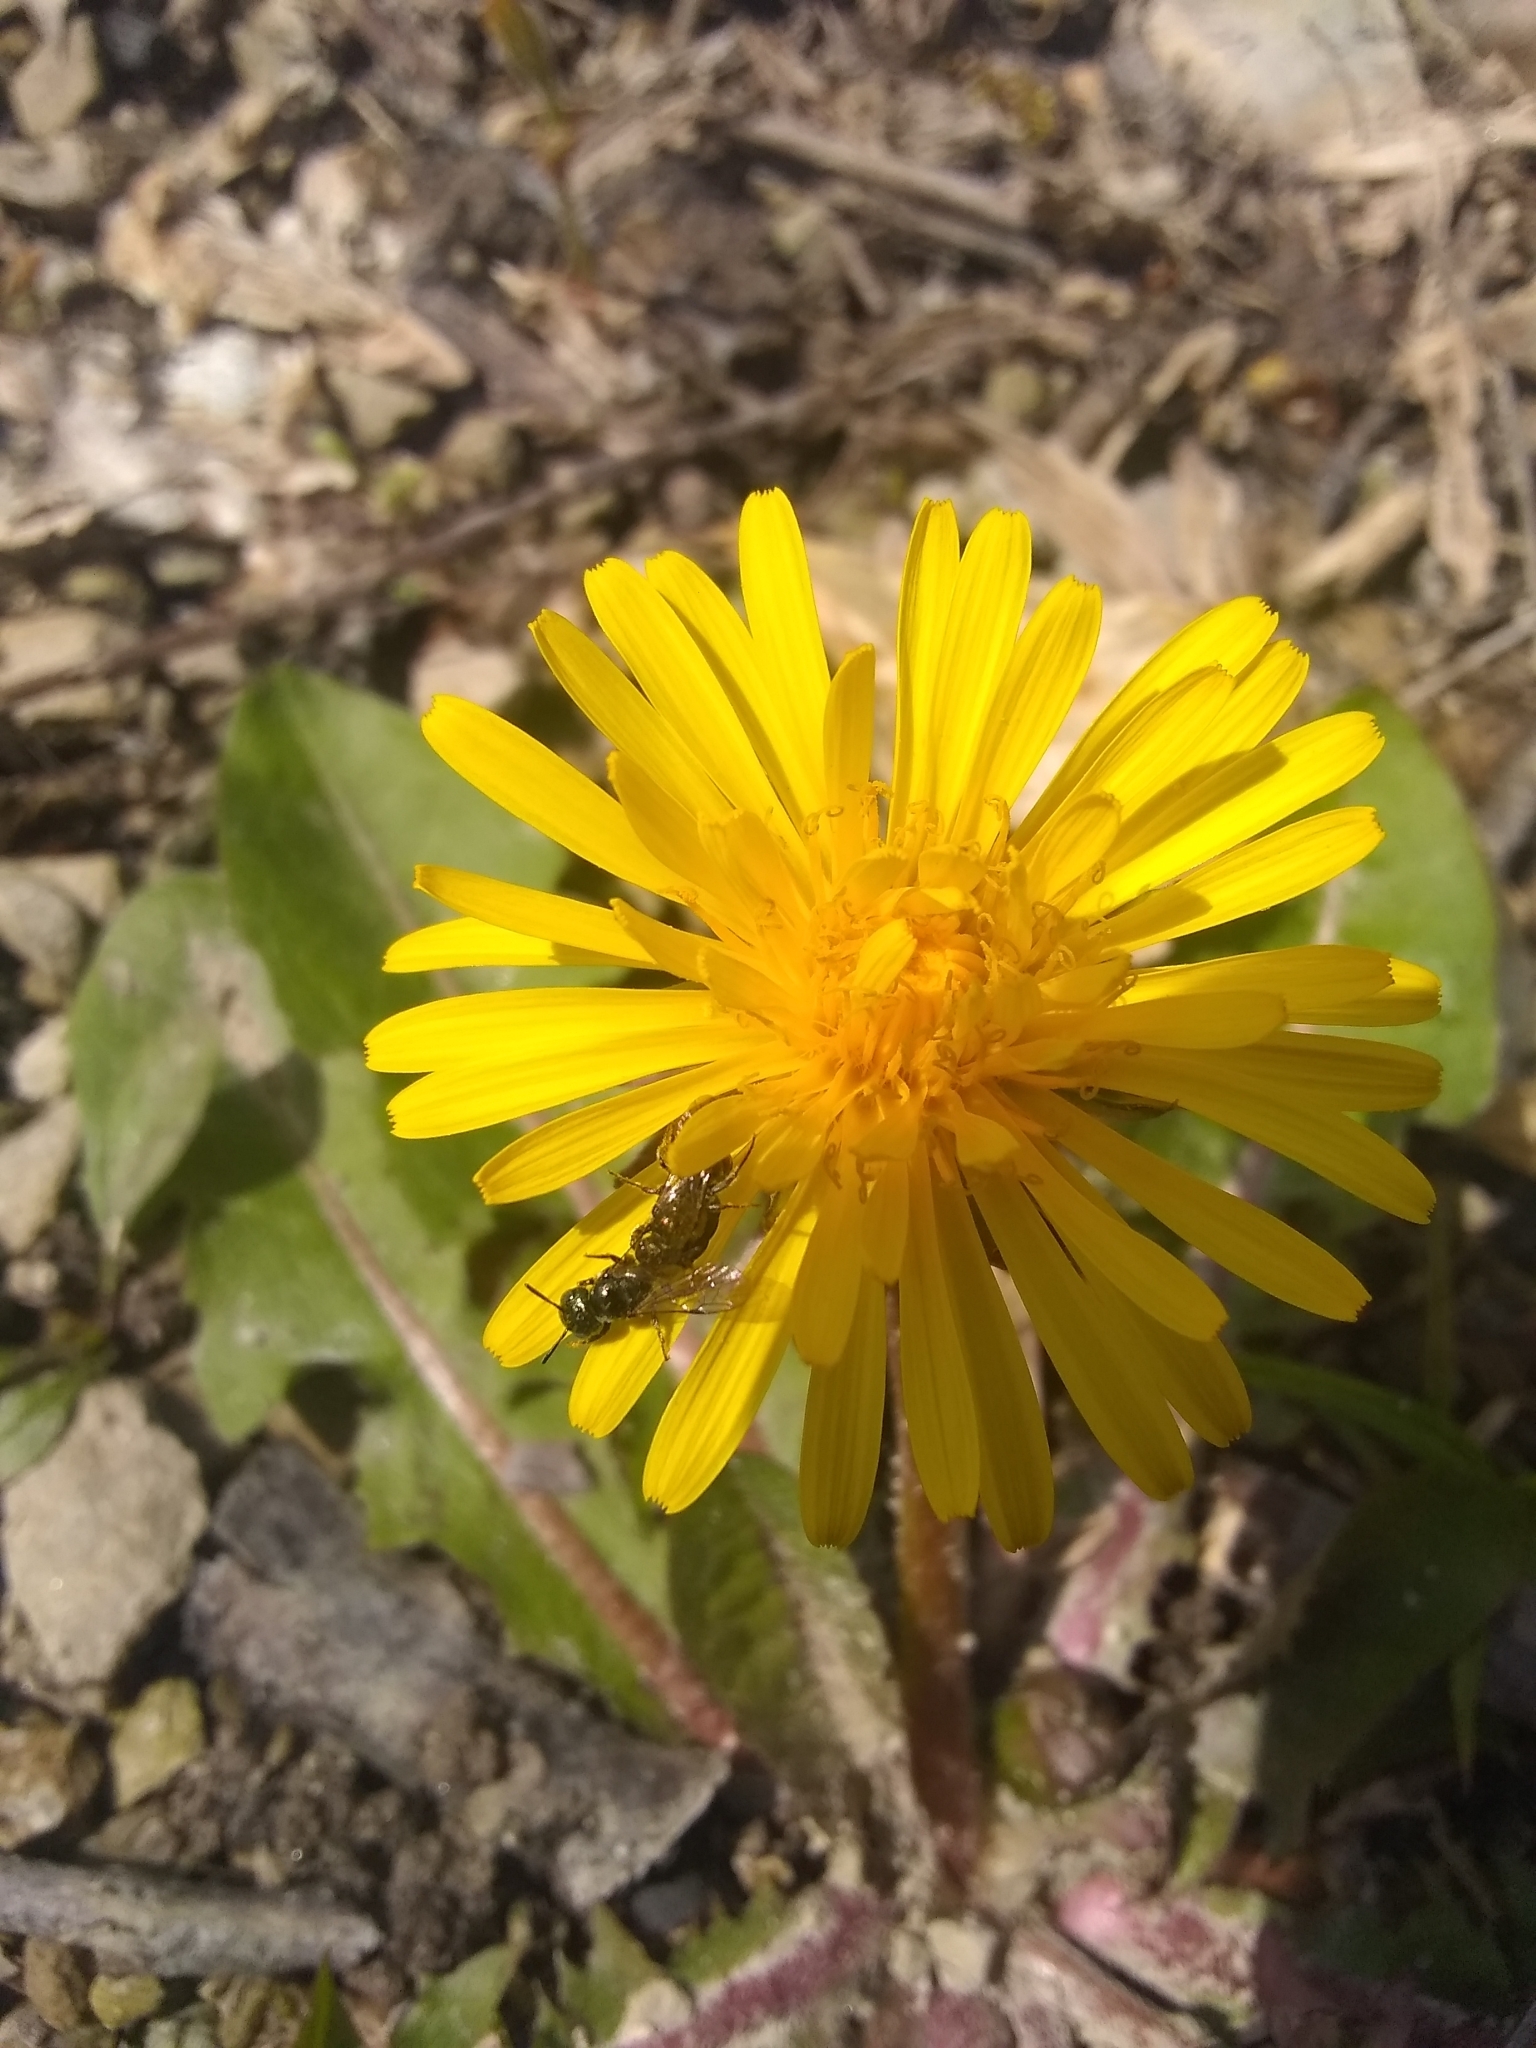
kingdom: Animalia
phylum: Arthropoda
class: Insecta
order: Hymenoptera
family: Apidae
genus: Zadontomerus
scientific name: Zadontomerus
